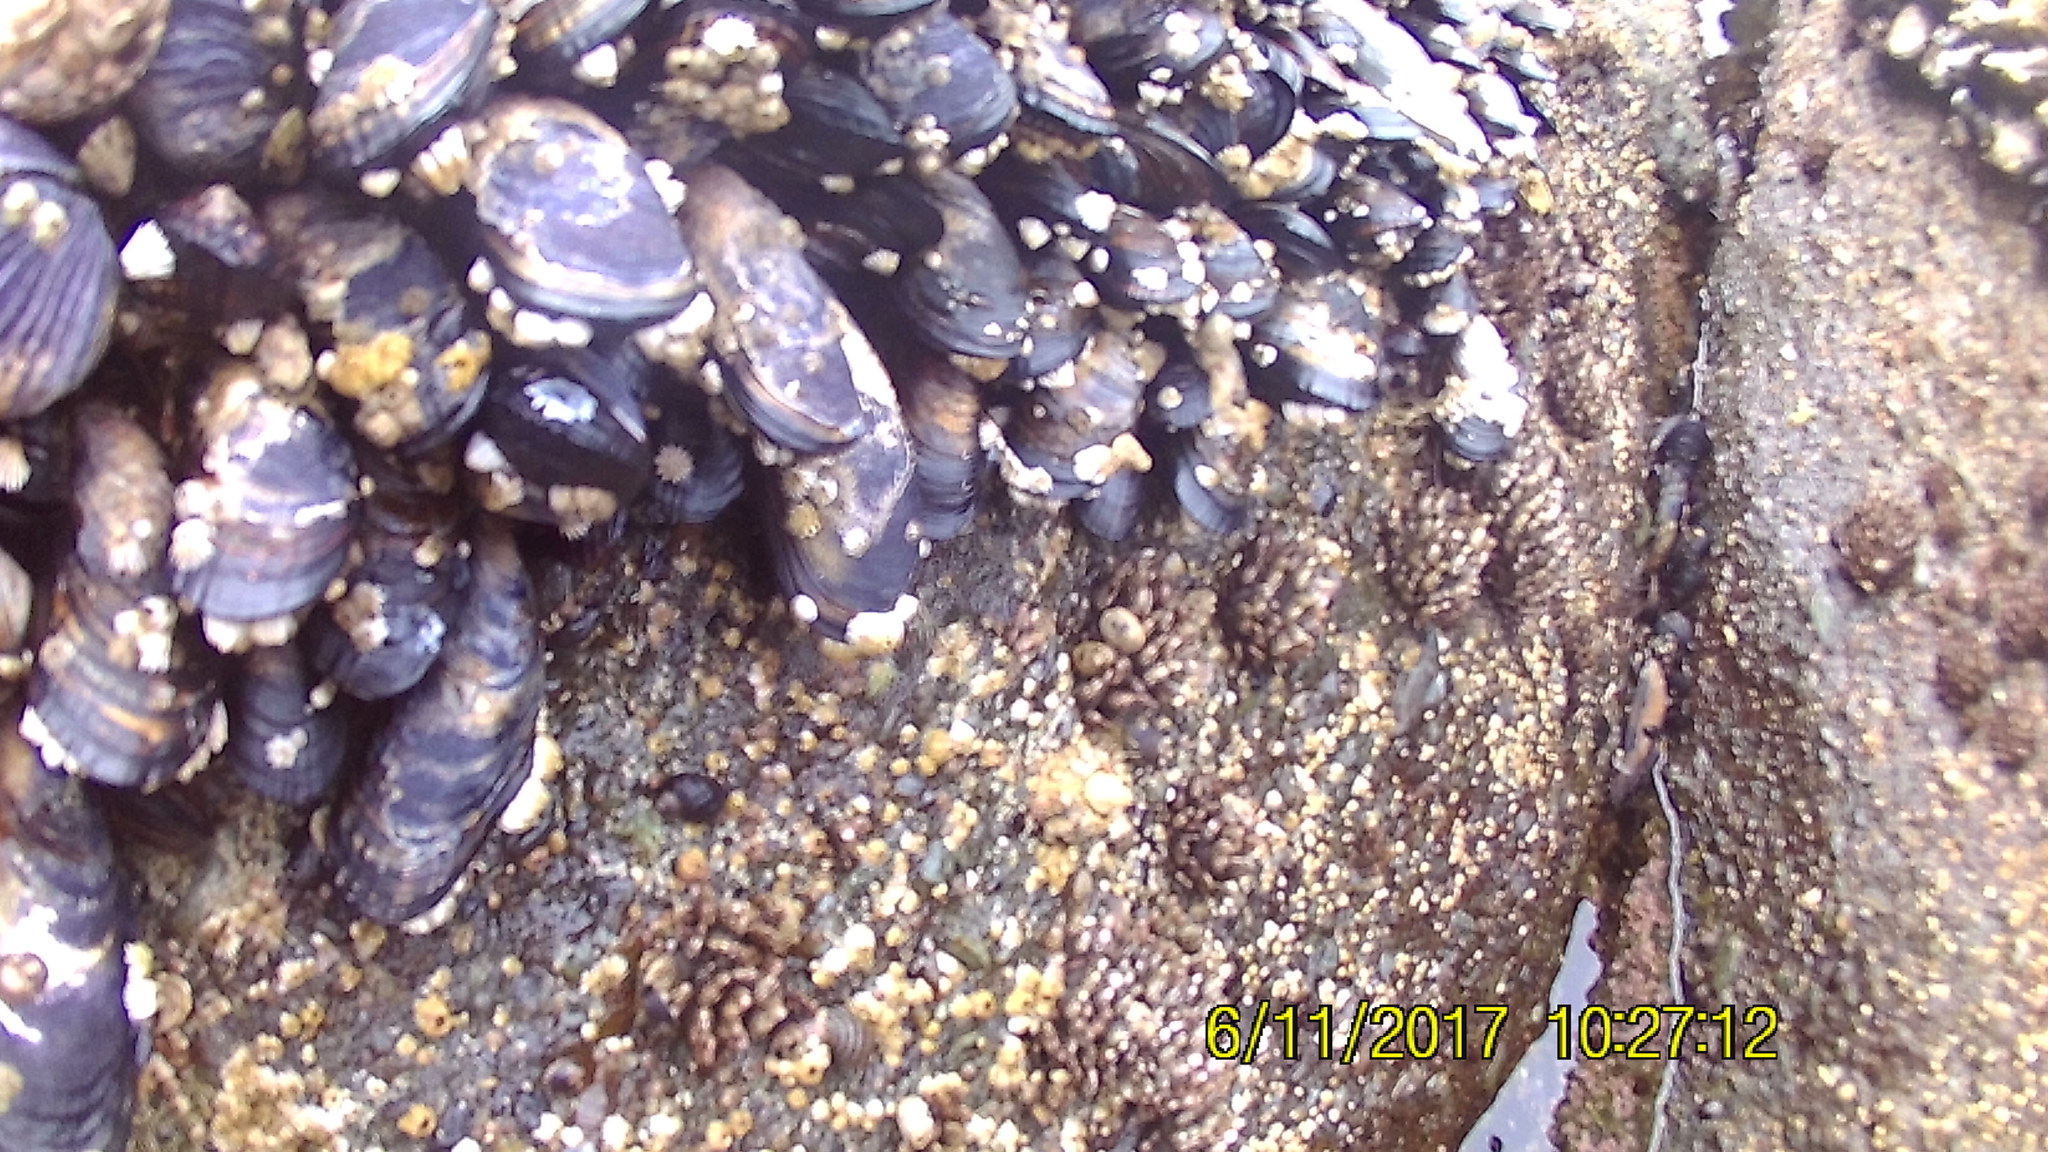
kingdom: Animalia
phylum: Mollusca
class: Bivalvia
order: Mytilida
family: Mytilidae
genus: Mytilus
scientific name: Mytilus californianus
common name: California mussel
